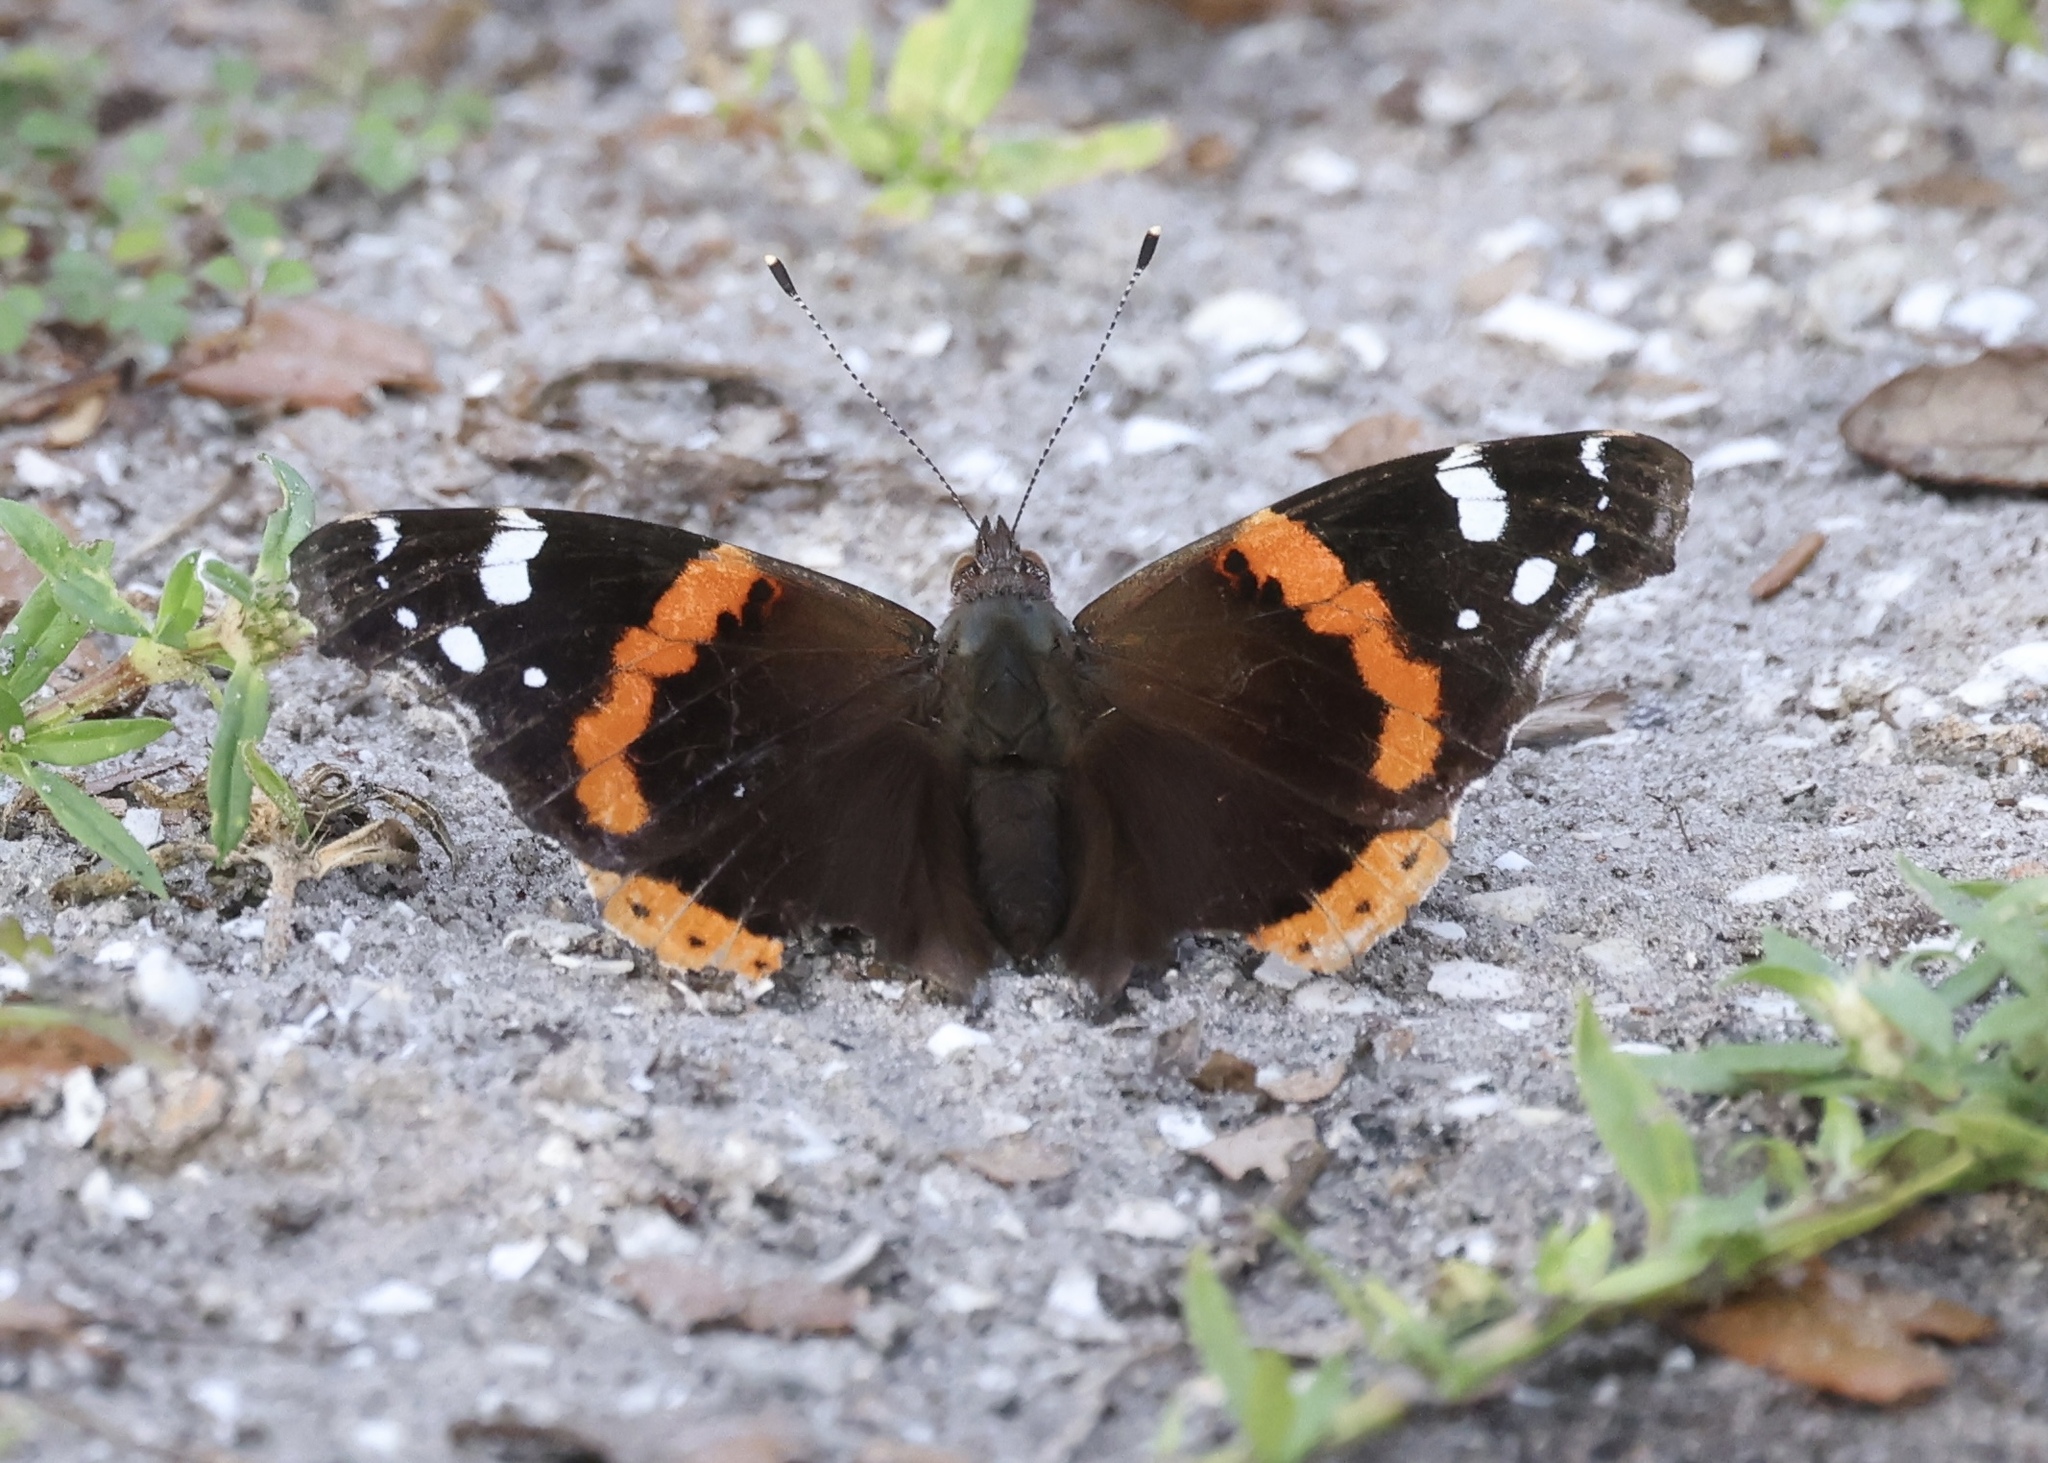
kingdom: Animalia
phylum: Arthropoda
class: Insecta
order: Lepidoptera
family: Nymphalidae
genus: Vanessa
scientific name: Vanessa atalanta
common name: Red admiral
